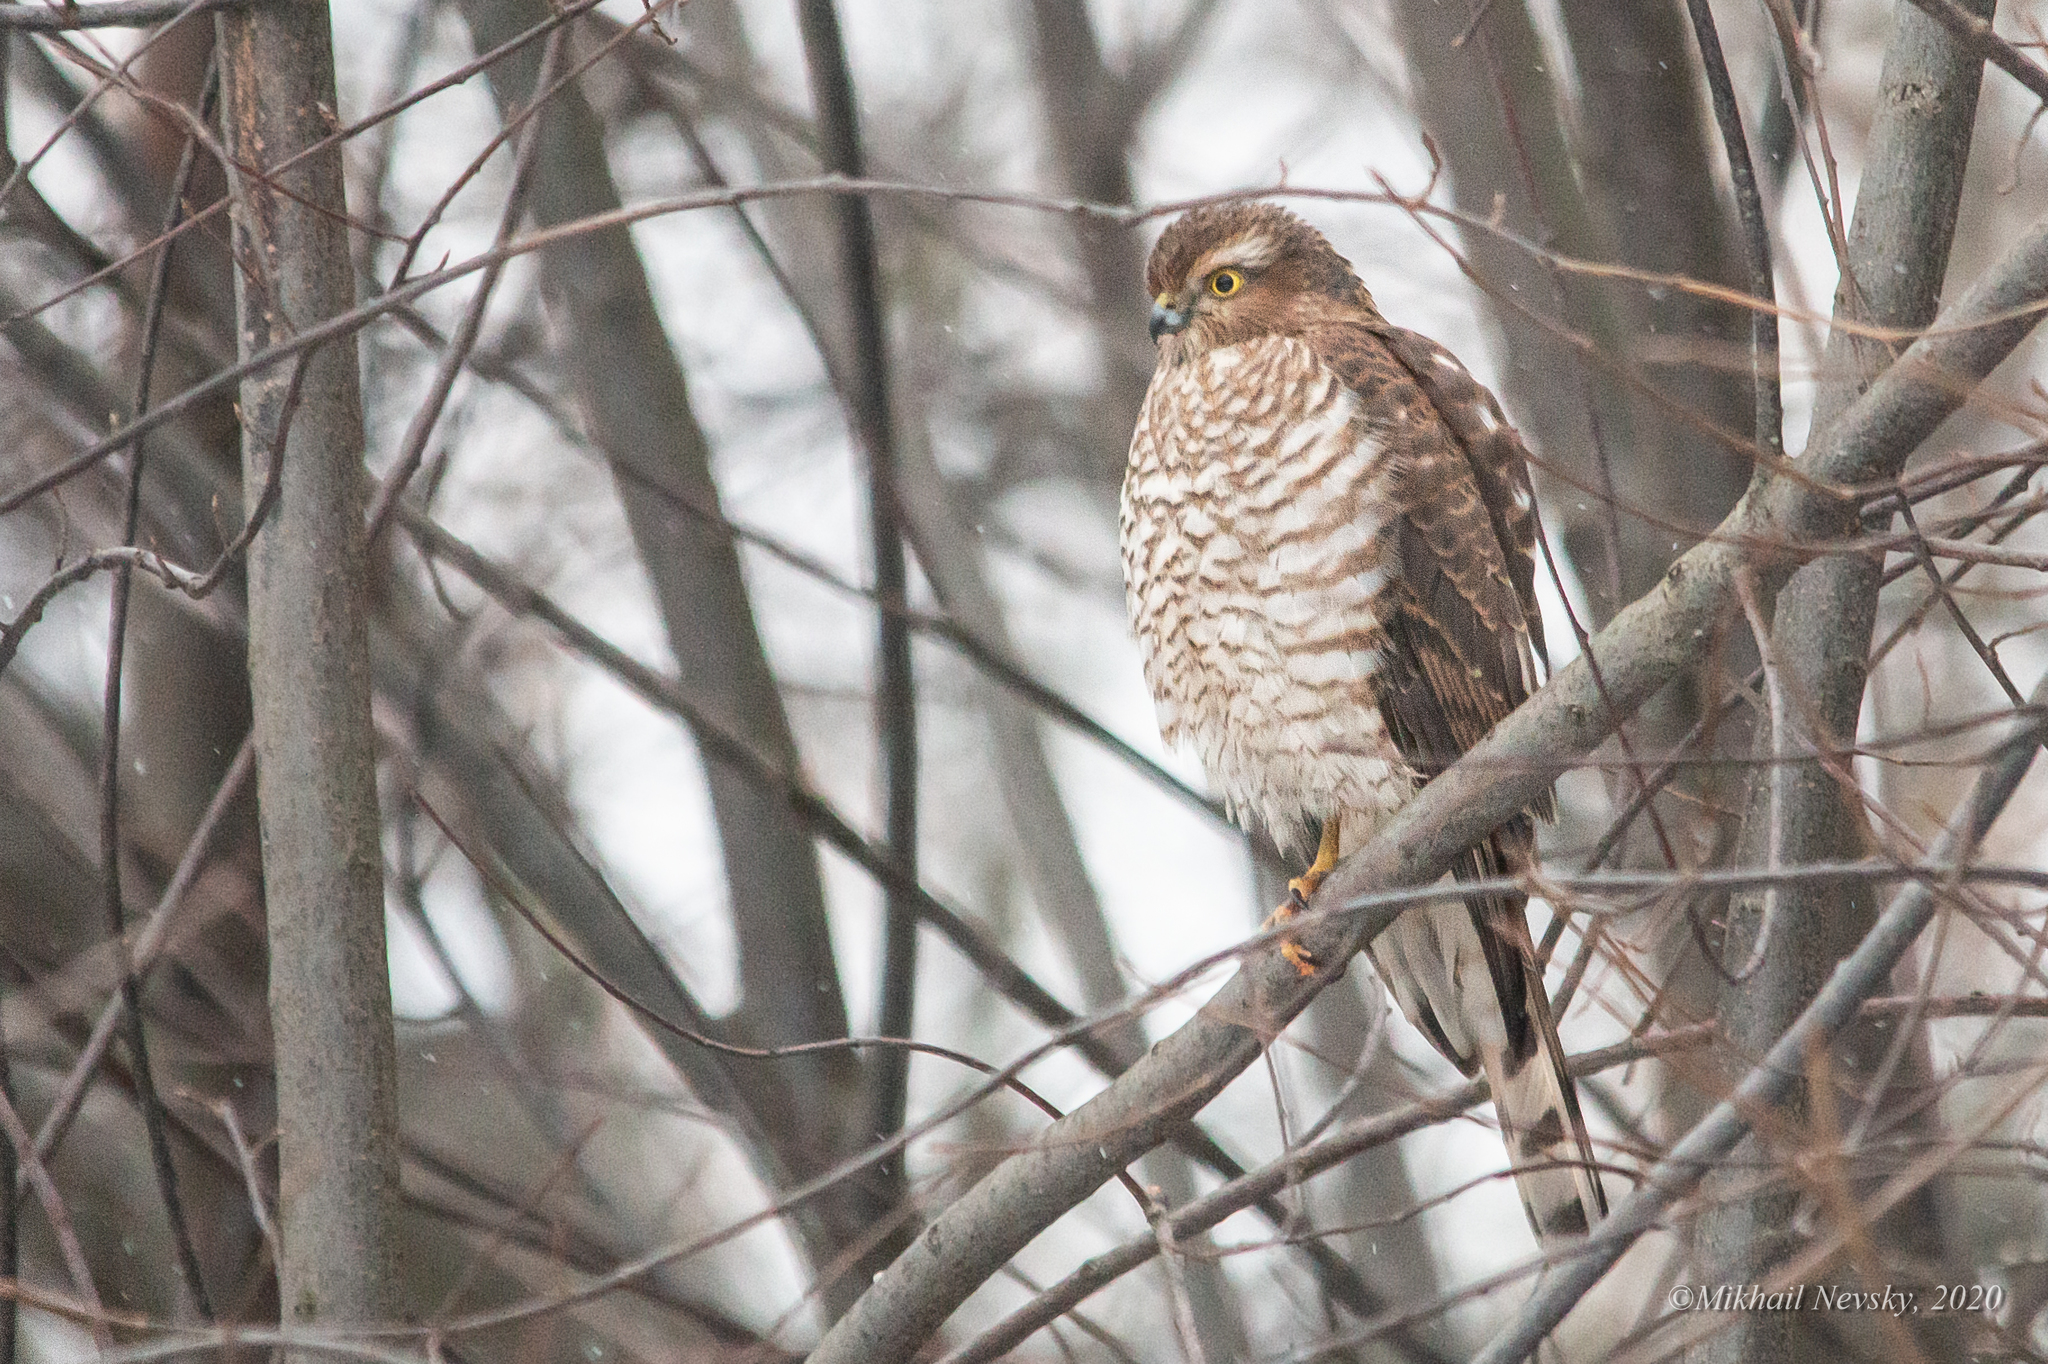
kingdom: Animalia
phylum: Chordata
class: Aves
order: Accipitriformes
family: Accipitridae
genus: Accipiter
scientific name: Accipiter nisus
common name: Eurasian sparrowhawk
